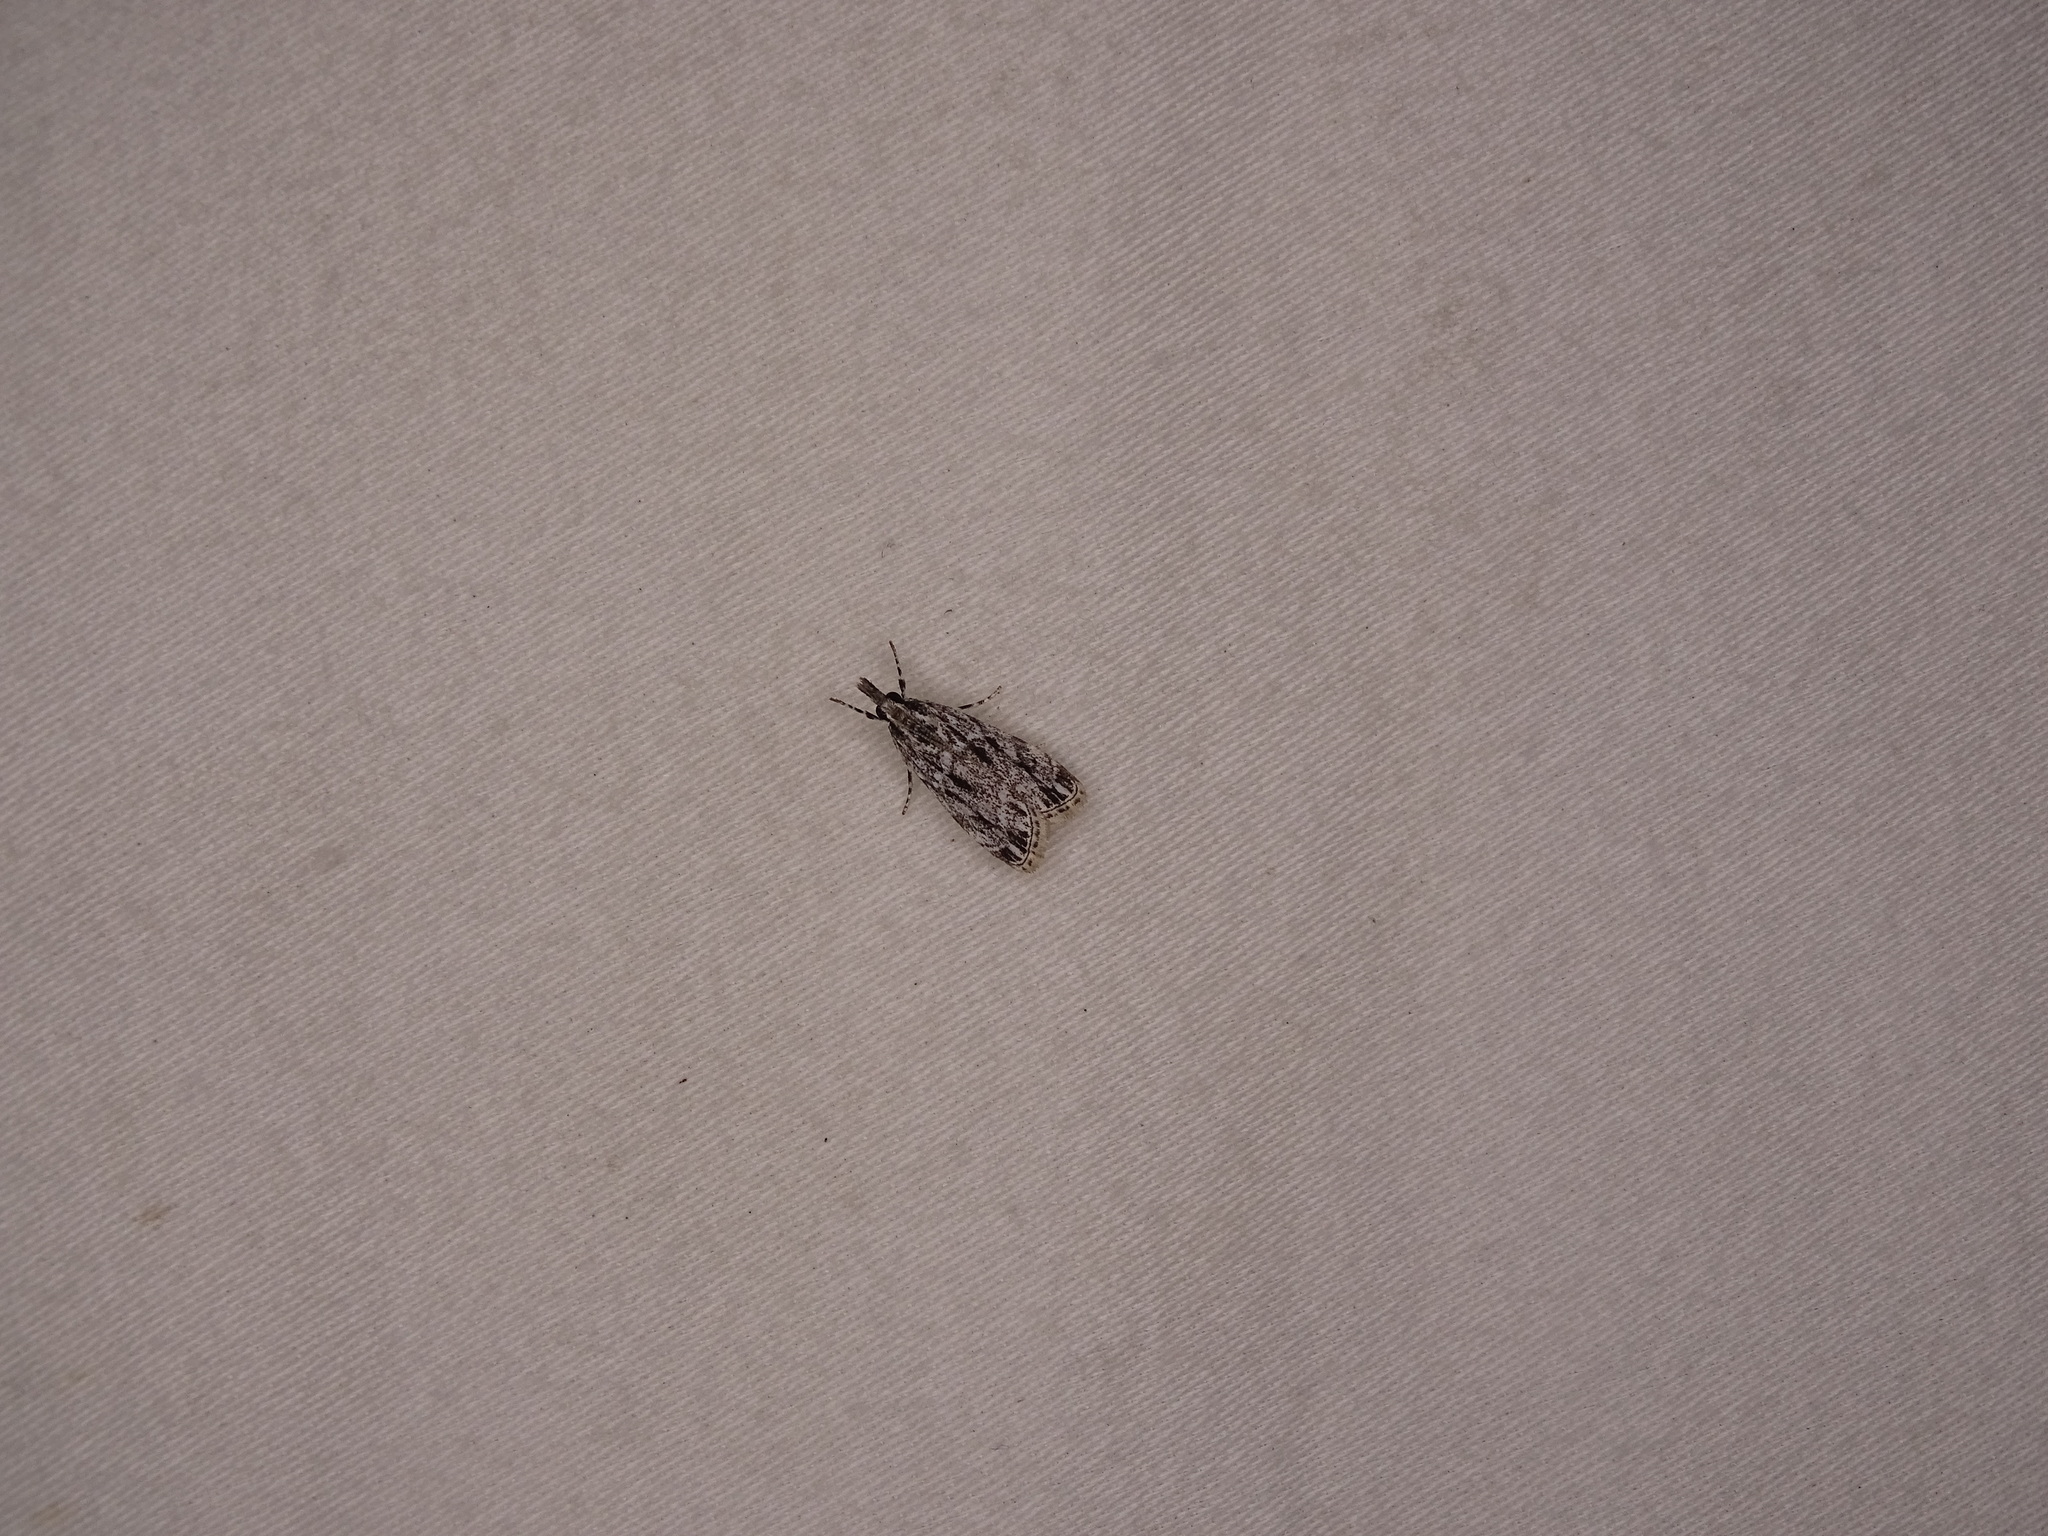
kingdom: Animalia
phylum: Arthropoda
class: Insecta
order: Lepidoptera
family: Crambidae
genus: Eudonia
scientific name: Eudonia strigalis
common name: Striped eudonia moth
